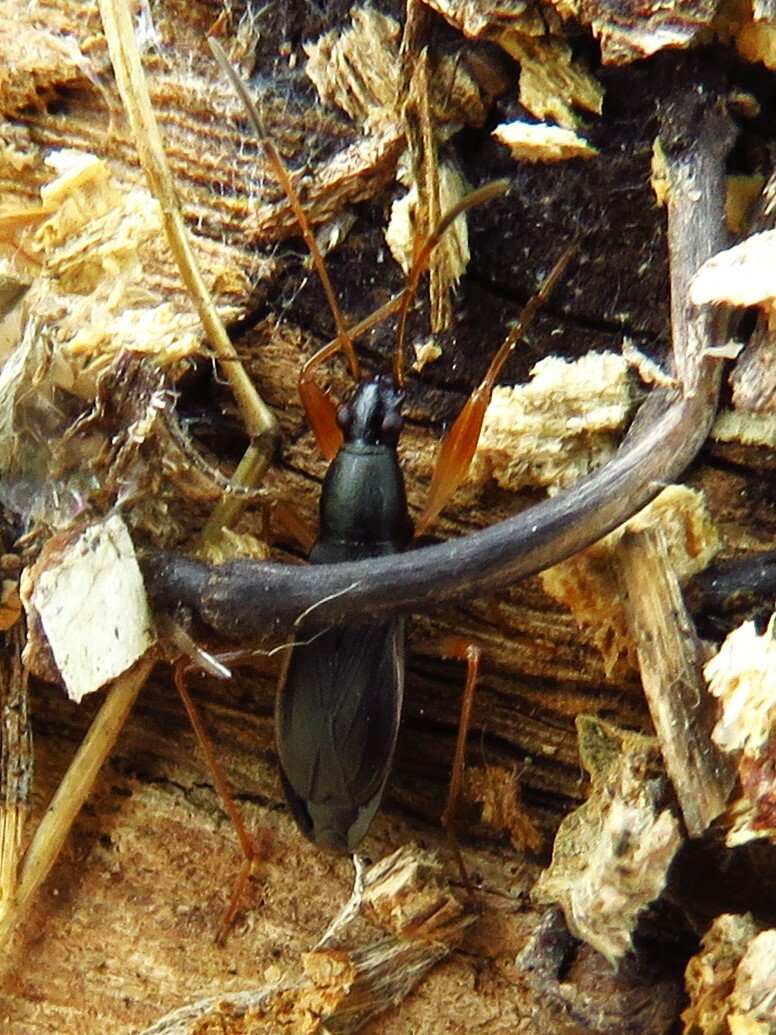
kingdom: Animalia
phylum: Arthropoda
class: Insecta
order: Hemiptera
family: Rhyparochromidae
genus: Cnemodus
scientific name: Cnemodus mavortius
